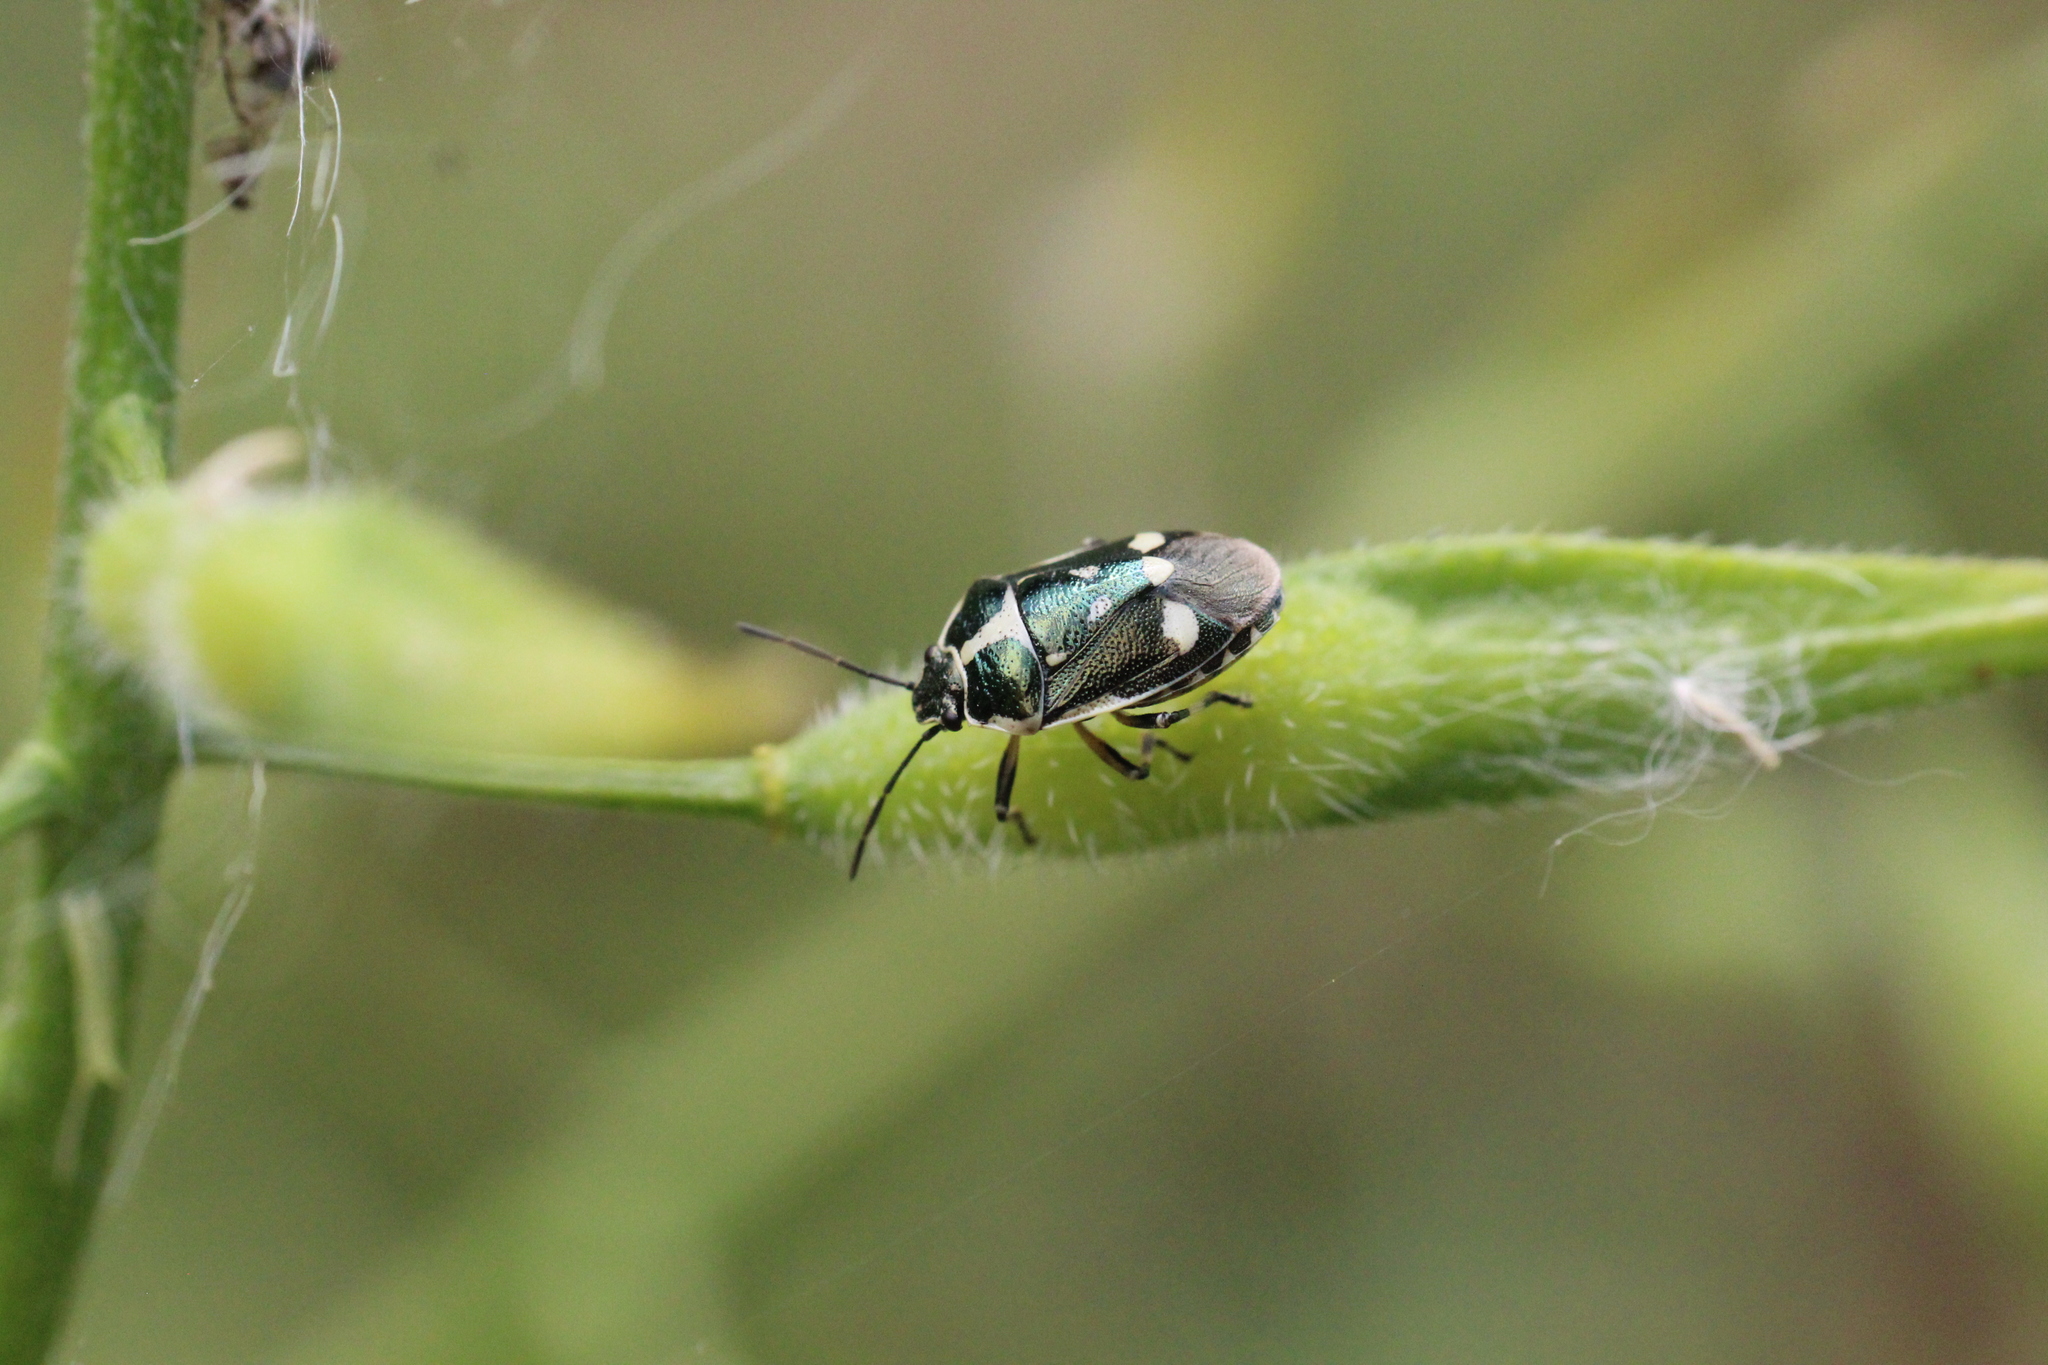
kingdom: Animalia
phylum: Arthropoda
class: Insecta
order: Hemiptera
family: Pentatomidae
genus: Eurydema
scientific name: Eurydema oleracea
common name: Cabbage bug
